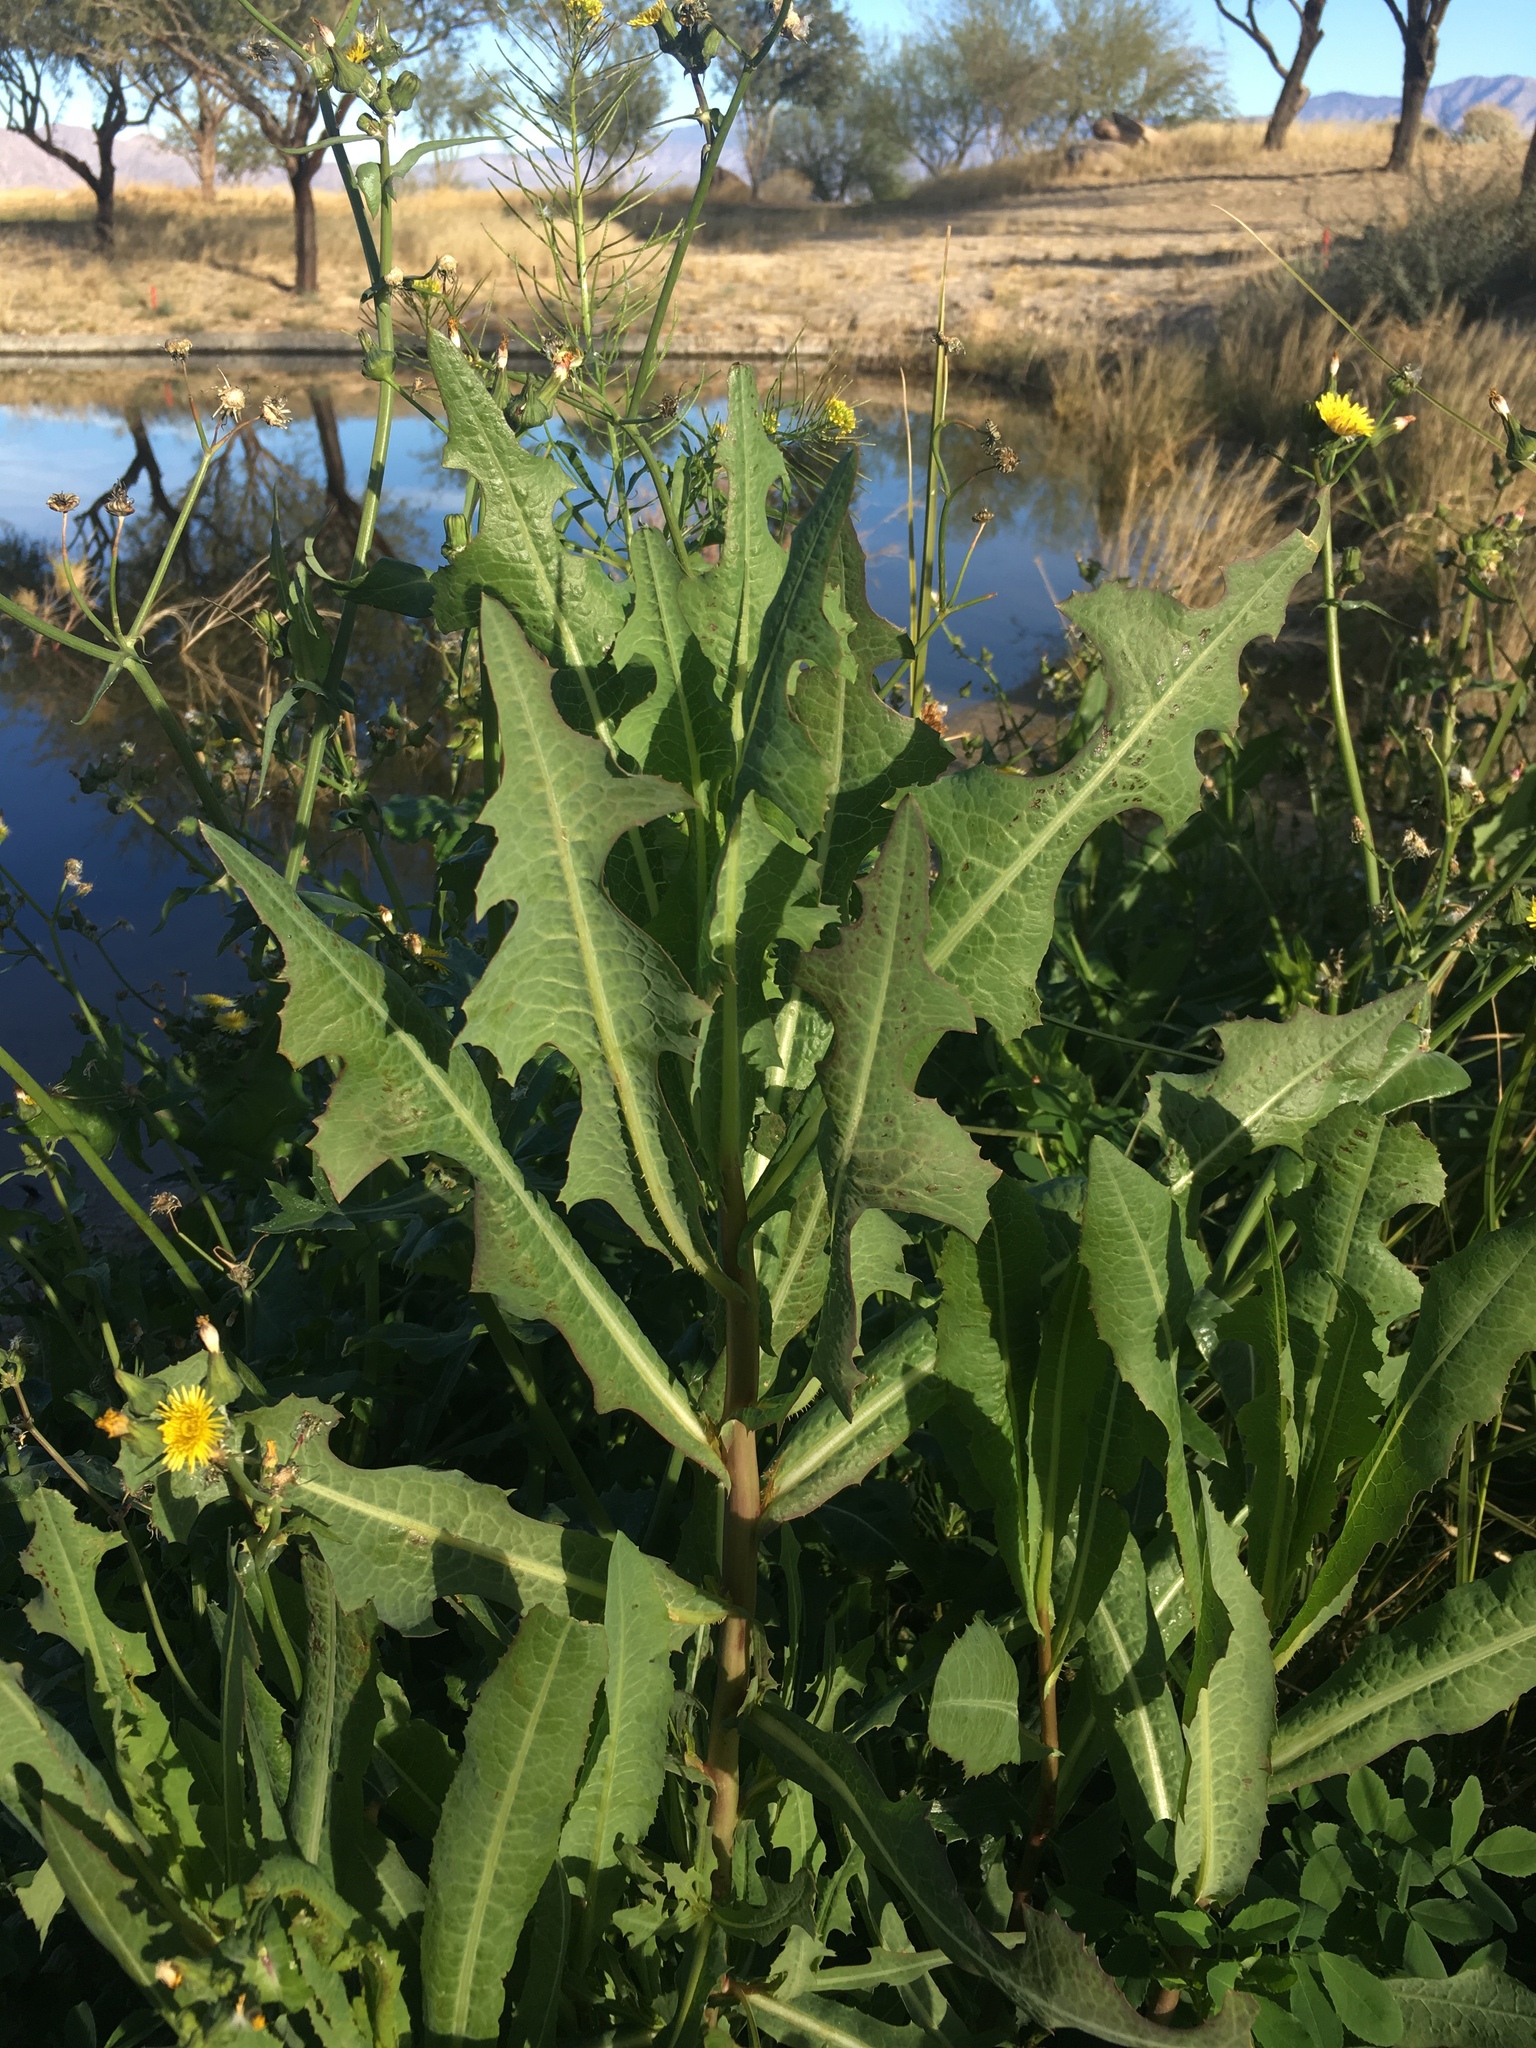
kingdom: Plantae
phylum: Tracheophyta
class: Magnoliopsida
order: Asterales
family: Asteraceae
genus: Lactuca
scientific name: Lactuca serriola
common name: Prickly lettuce
